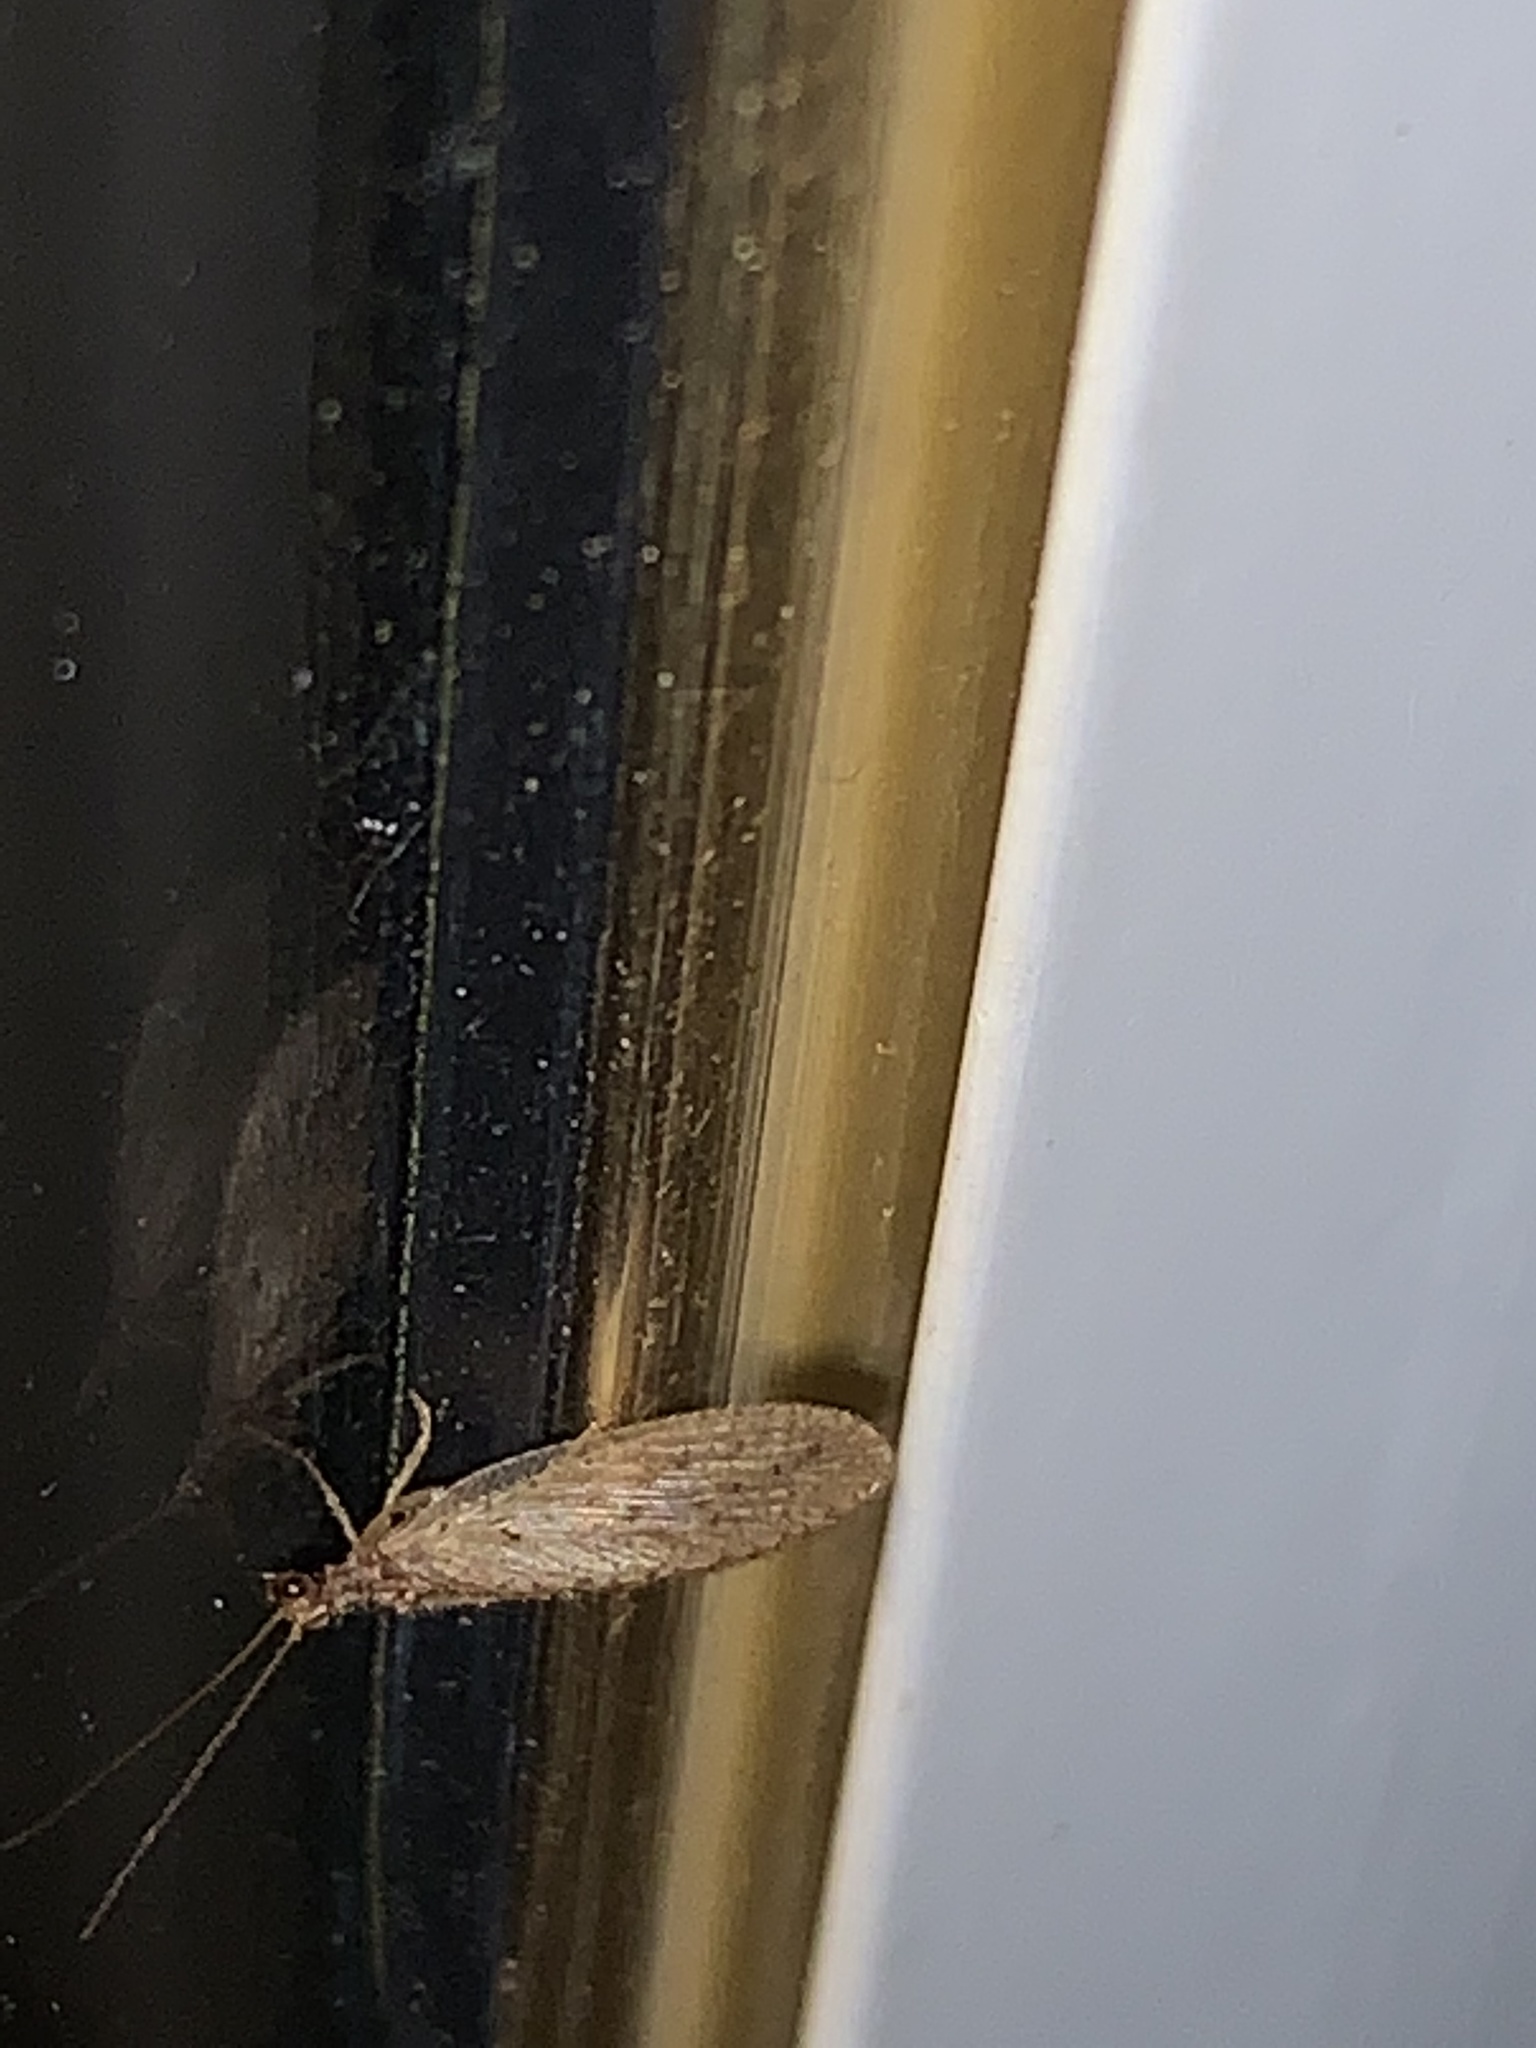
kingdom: Animalia
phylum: Arthropoda
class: Insecta
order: Neuroptera
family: Hemerobiidae
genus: Micromus
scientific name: Micromus subanticus
